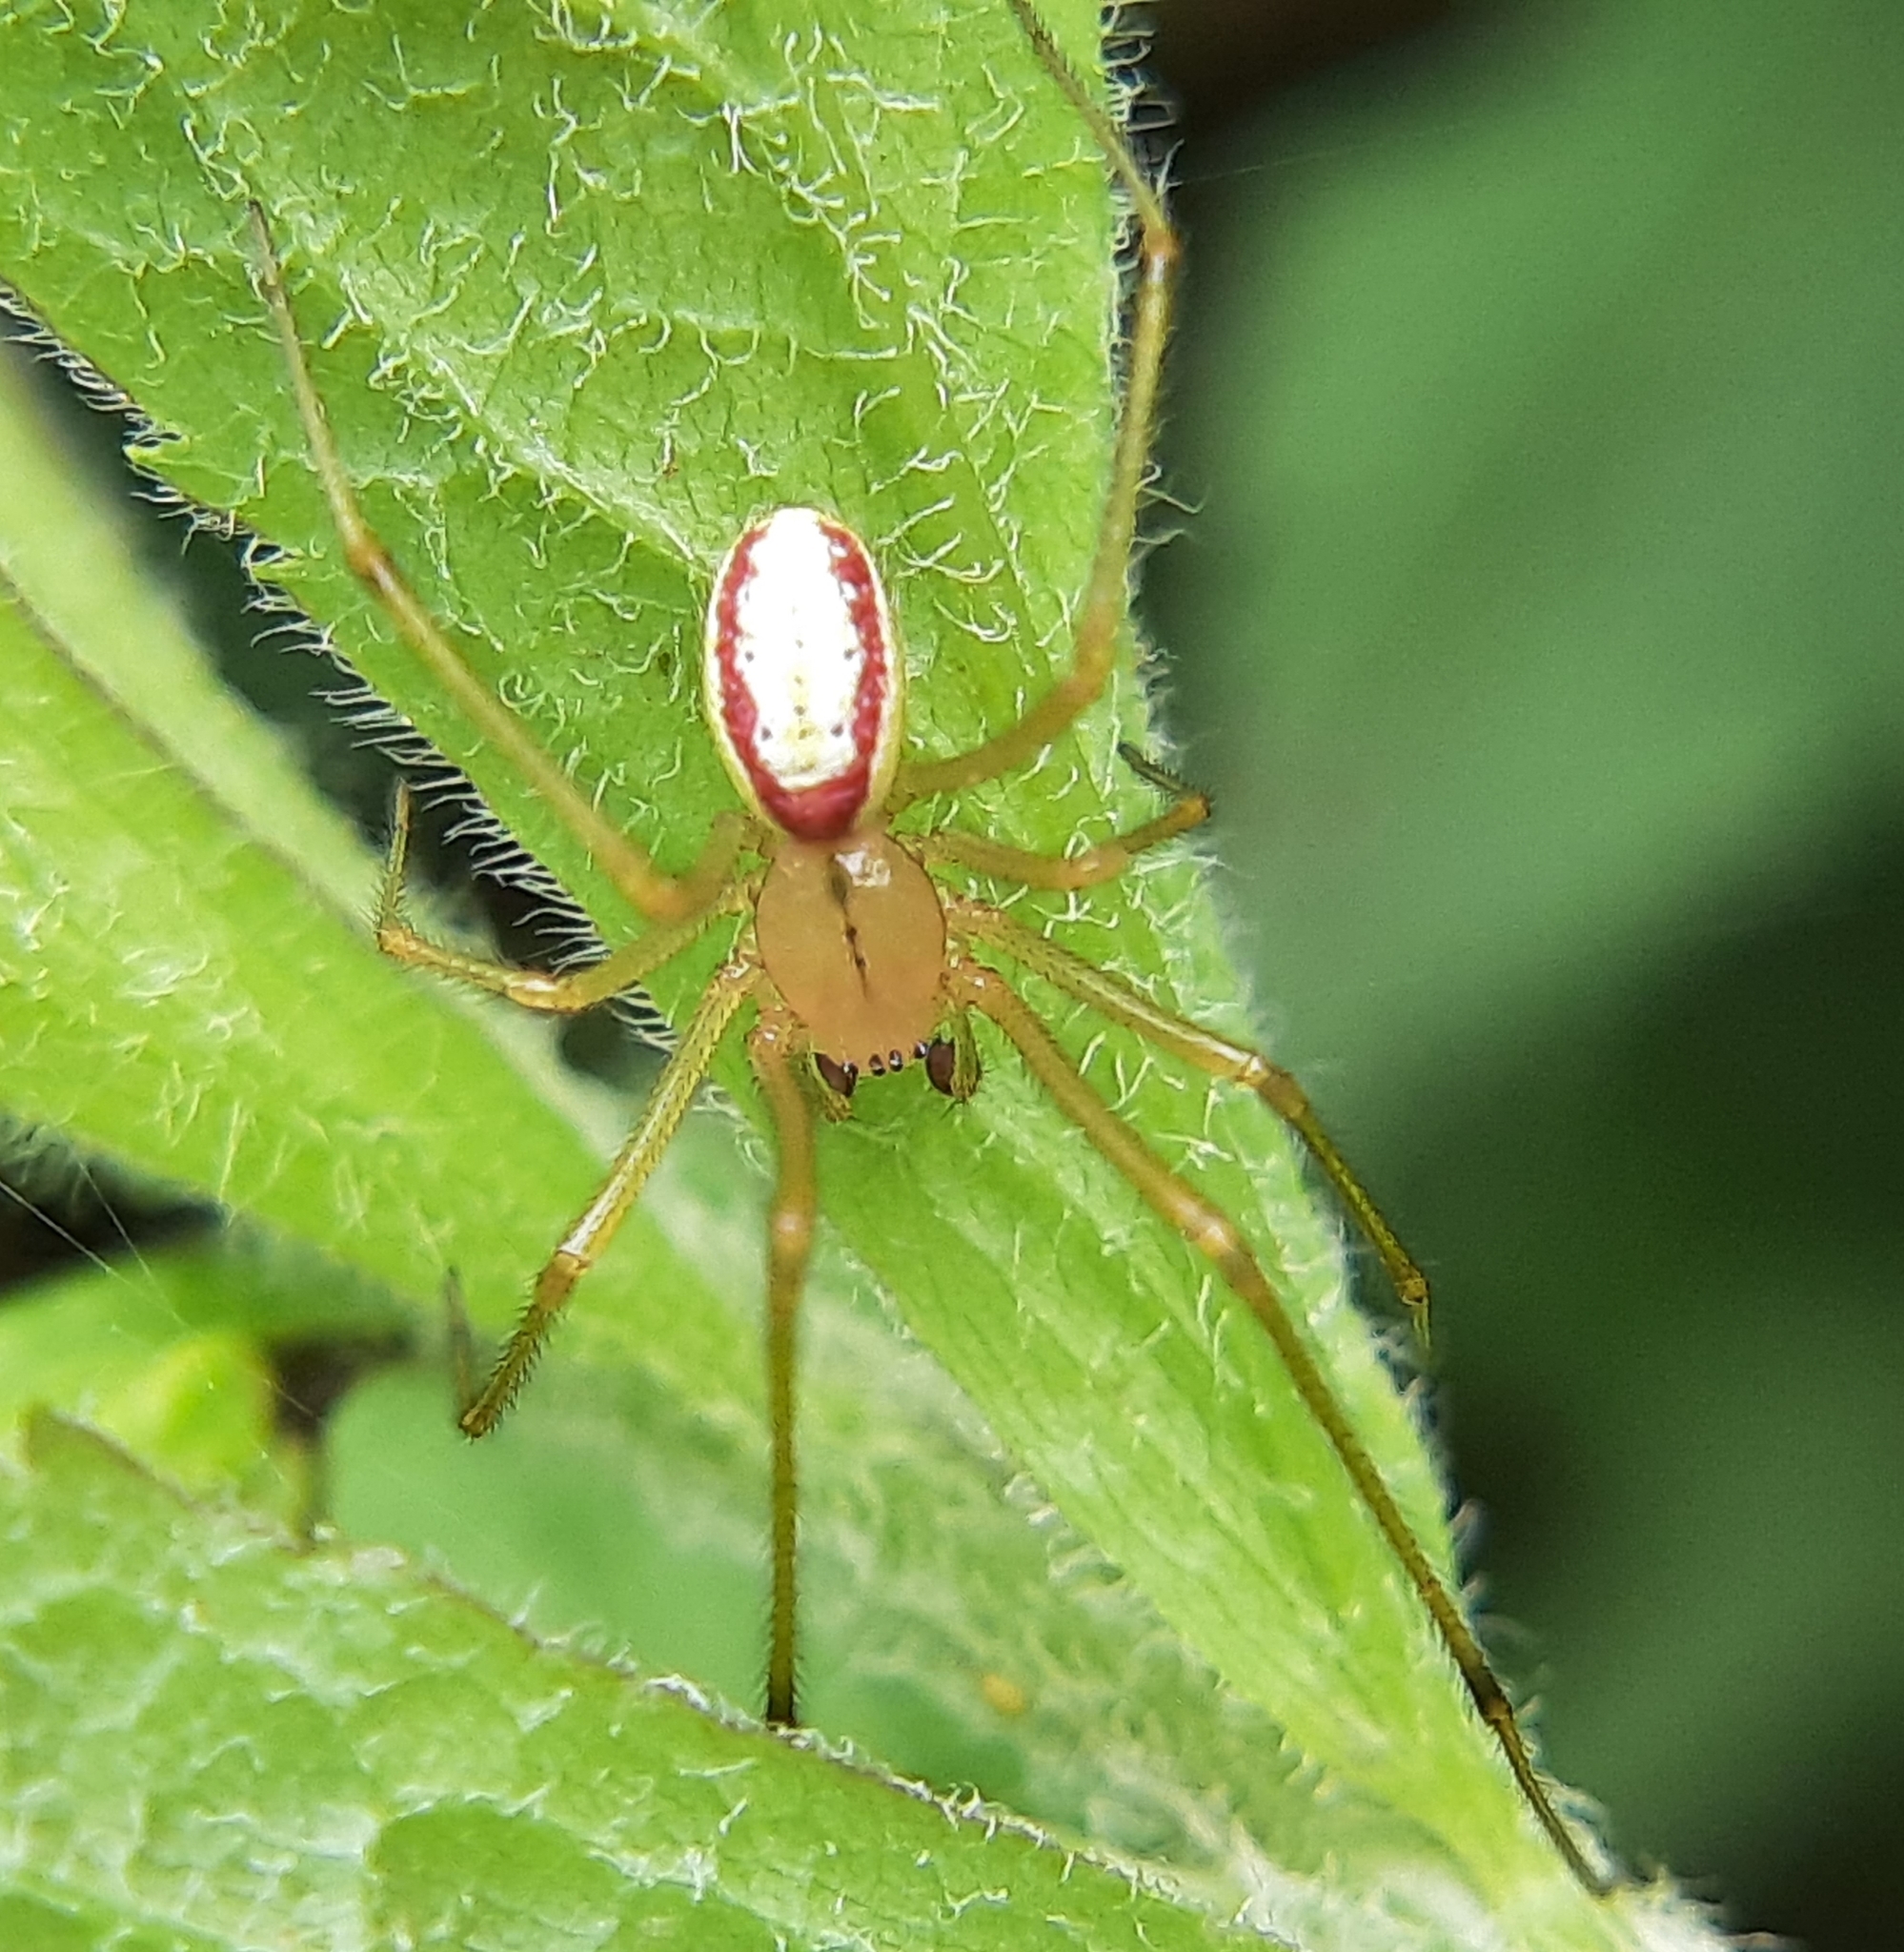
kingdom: Animalia
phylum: Arthropoda
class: Arachnida
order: Araneae
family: Theridiidae
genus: Enoplognatha
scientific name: Enoplognatha ovata
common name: Common candy-striped spider
